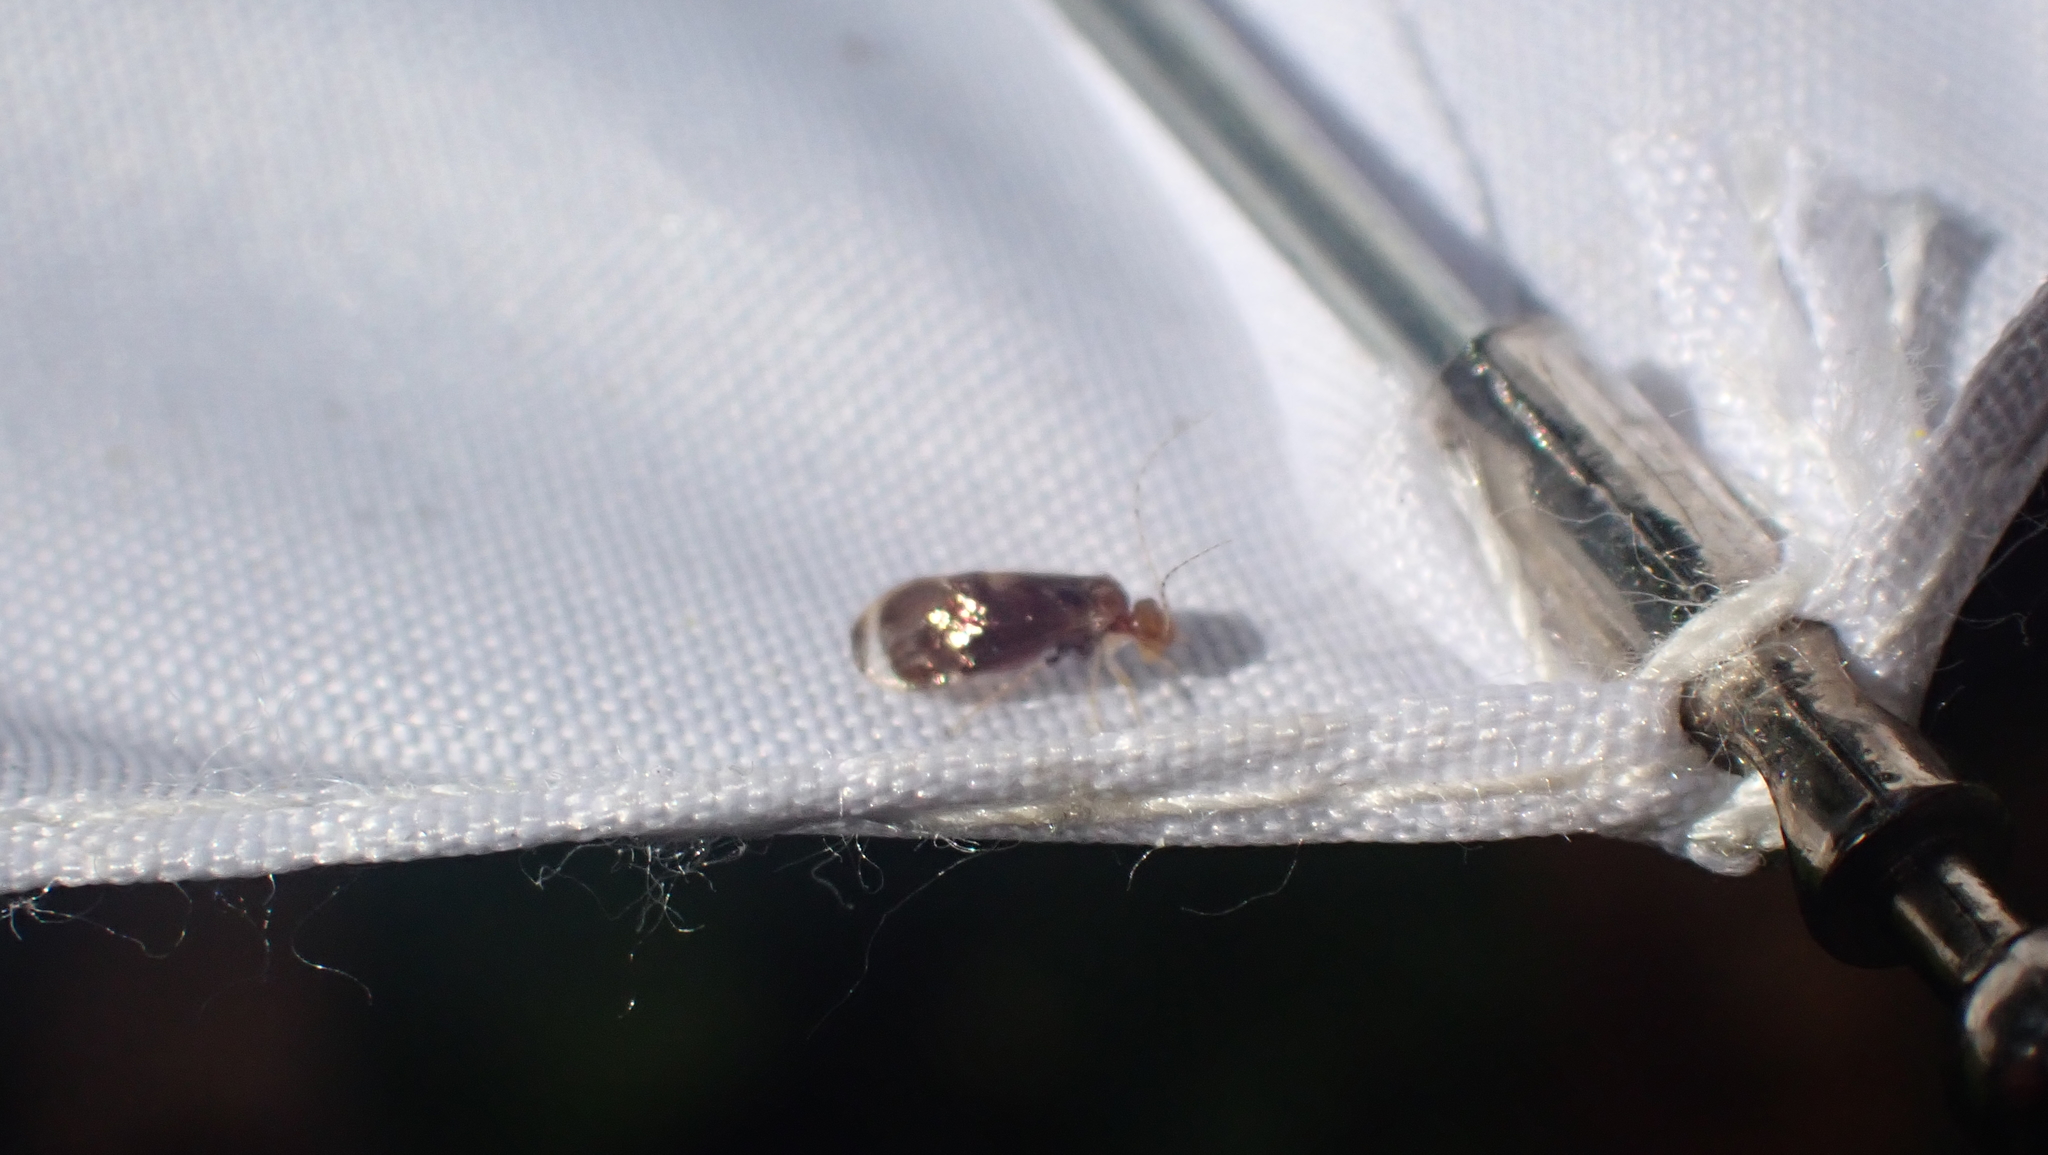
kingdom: Animalia
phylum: Arthropoda
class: Insecta
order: Psocodea
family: Amphipsocidae
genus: Polypsocus
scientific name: Polypsocus corruptus
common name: Corrupt barklouse
